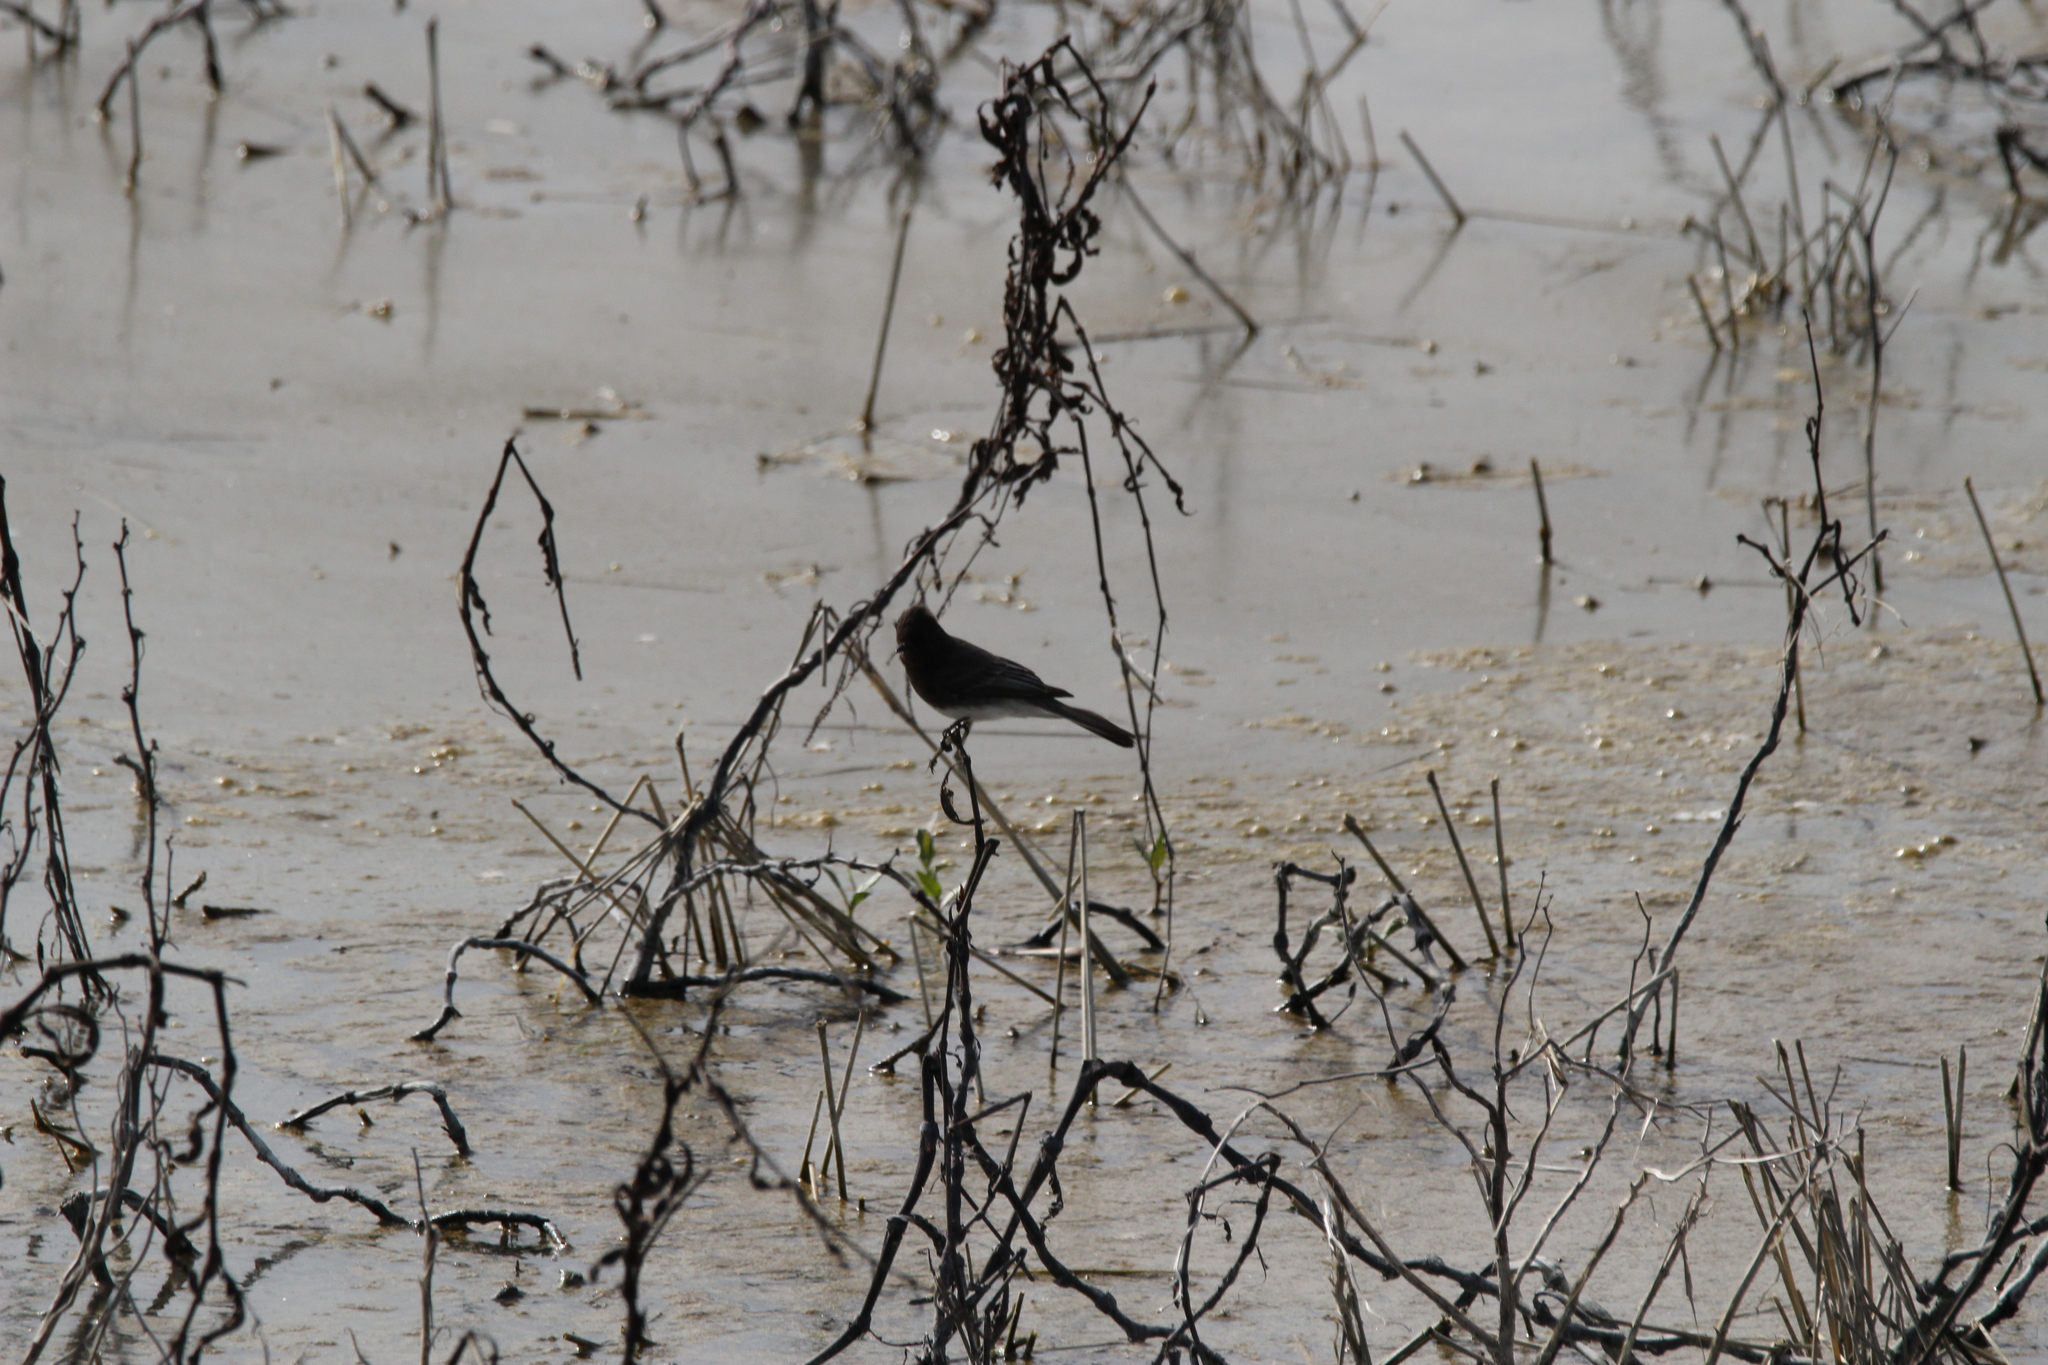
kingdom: Animalia
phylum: Chordata
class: Aves
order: Passeriformes
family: Tyrannidae
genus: Sayornis
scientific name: Sayornis nigricans
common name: Black phoebe
